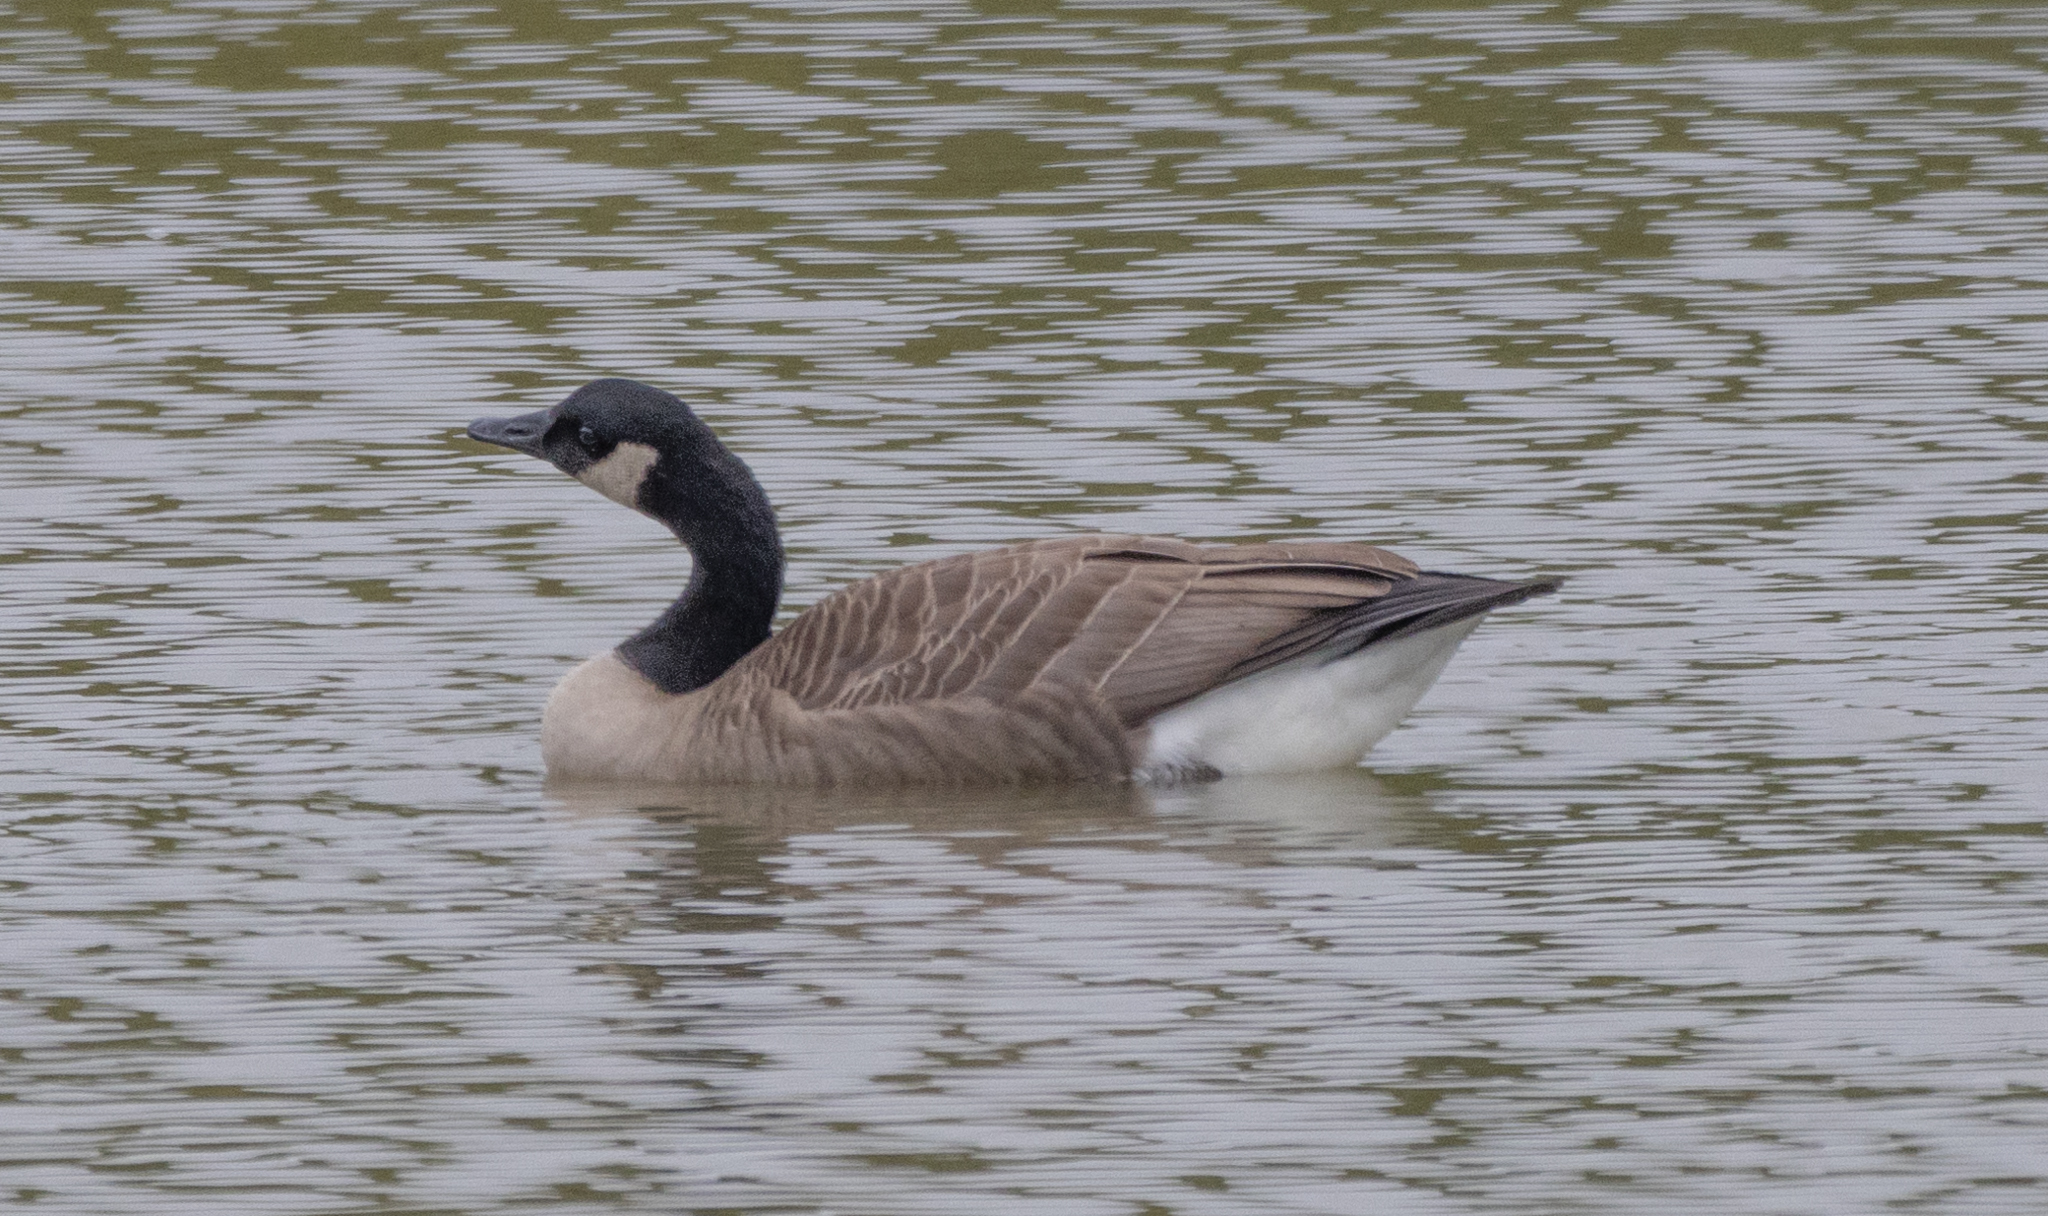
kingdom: Animalia
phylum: Chordata
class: Aves
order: Anseriformes
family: Anatidae
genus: Branta
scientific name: Branta canadensis
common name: Canada goose
